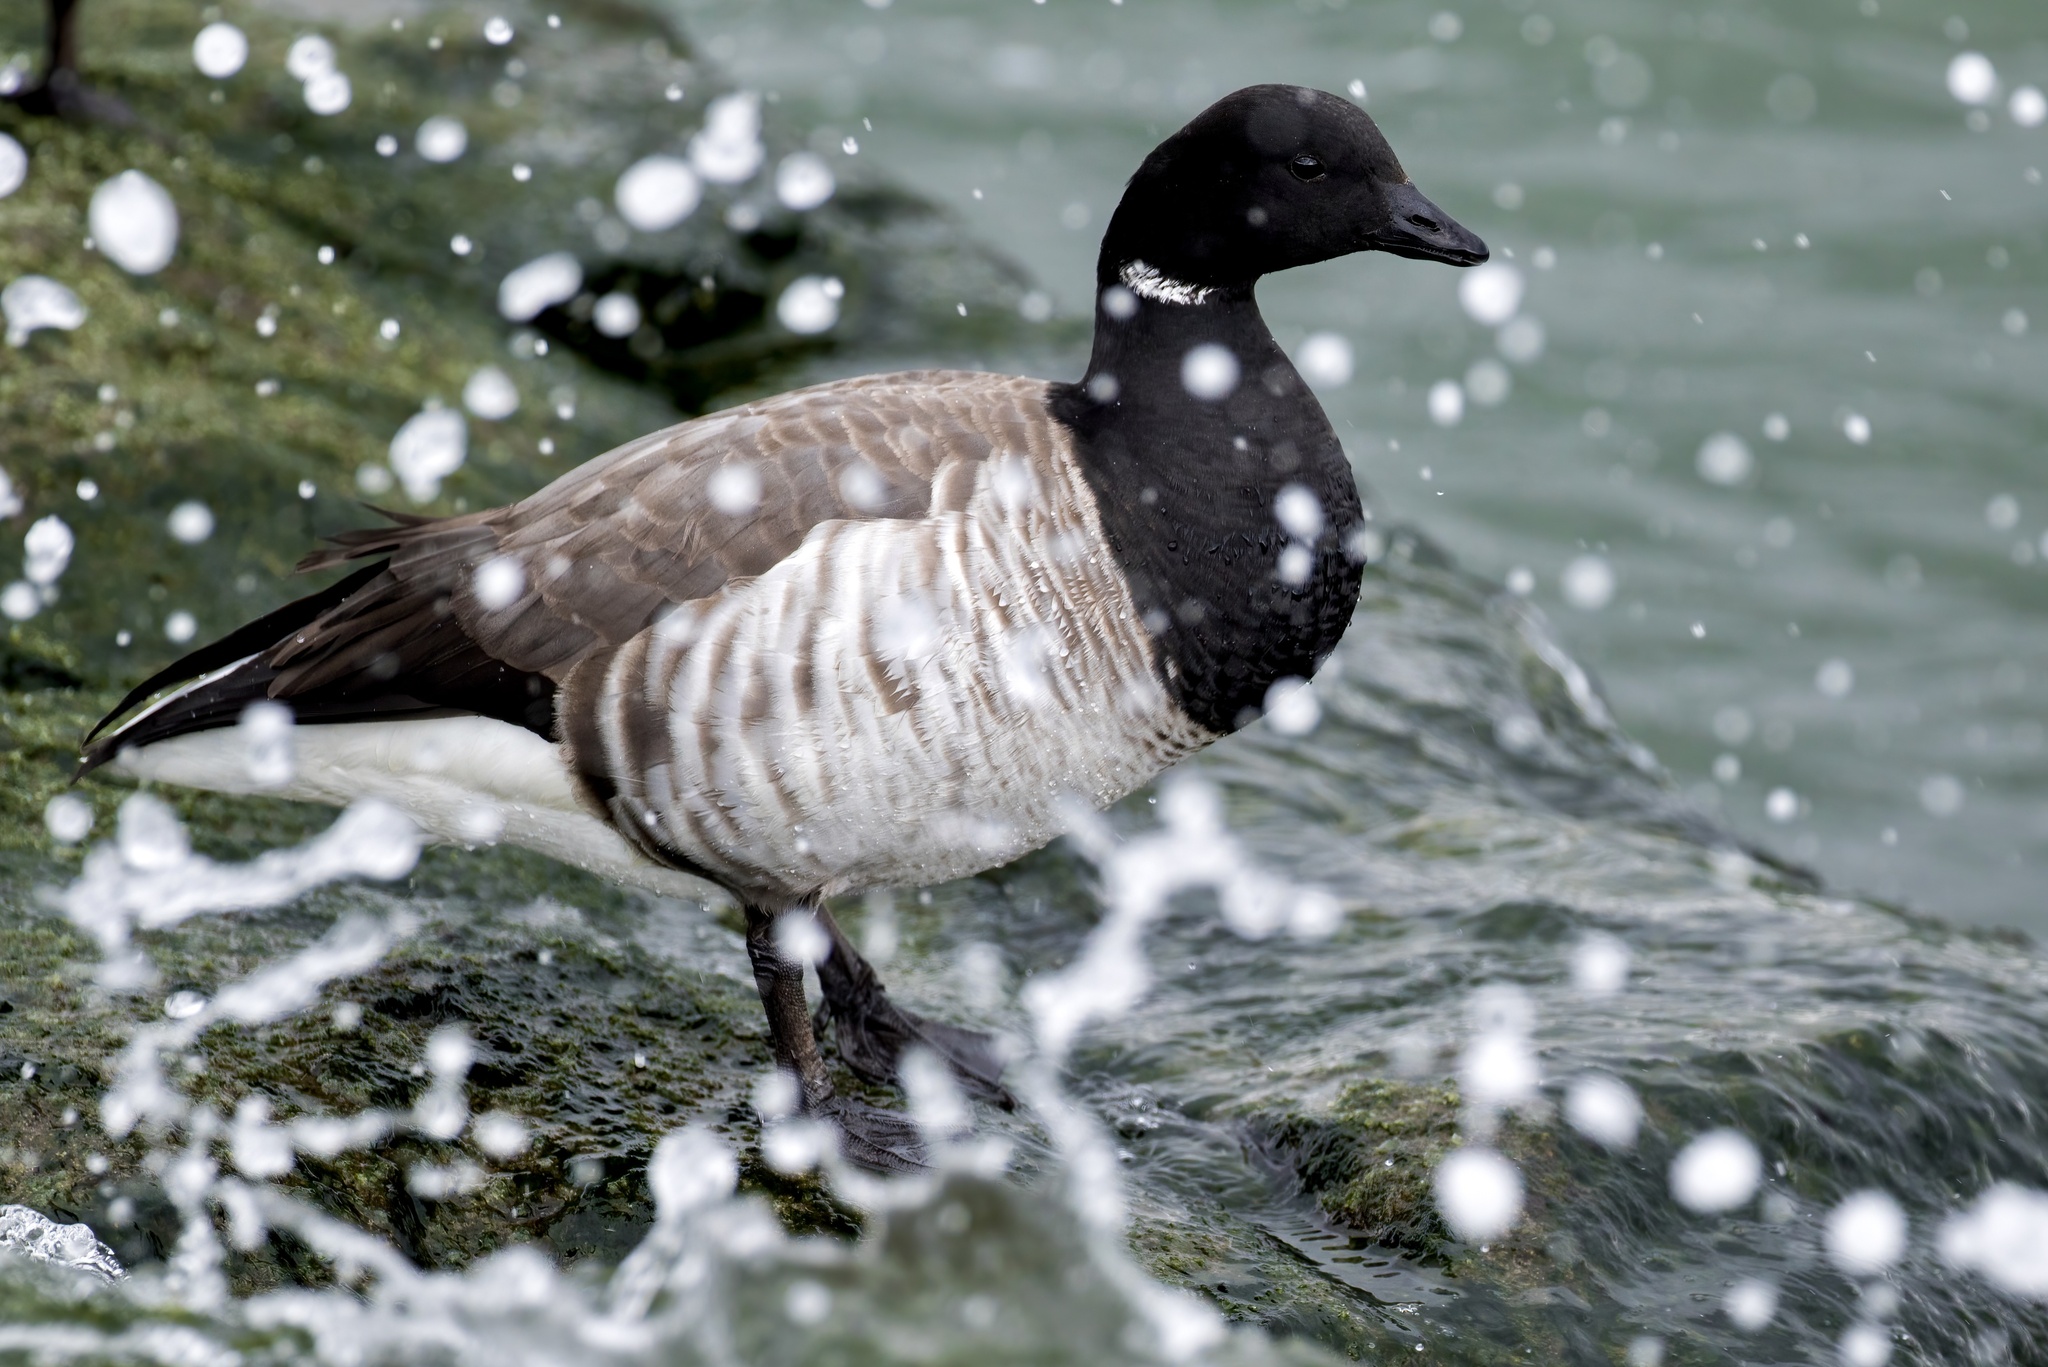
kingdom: Animalia
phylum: Chordata
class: Aves
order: Anseriformes
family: Anatidae
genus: Branta
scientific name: Branta bernicla
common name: Brant goose
